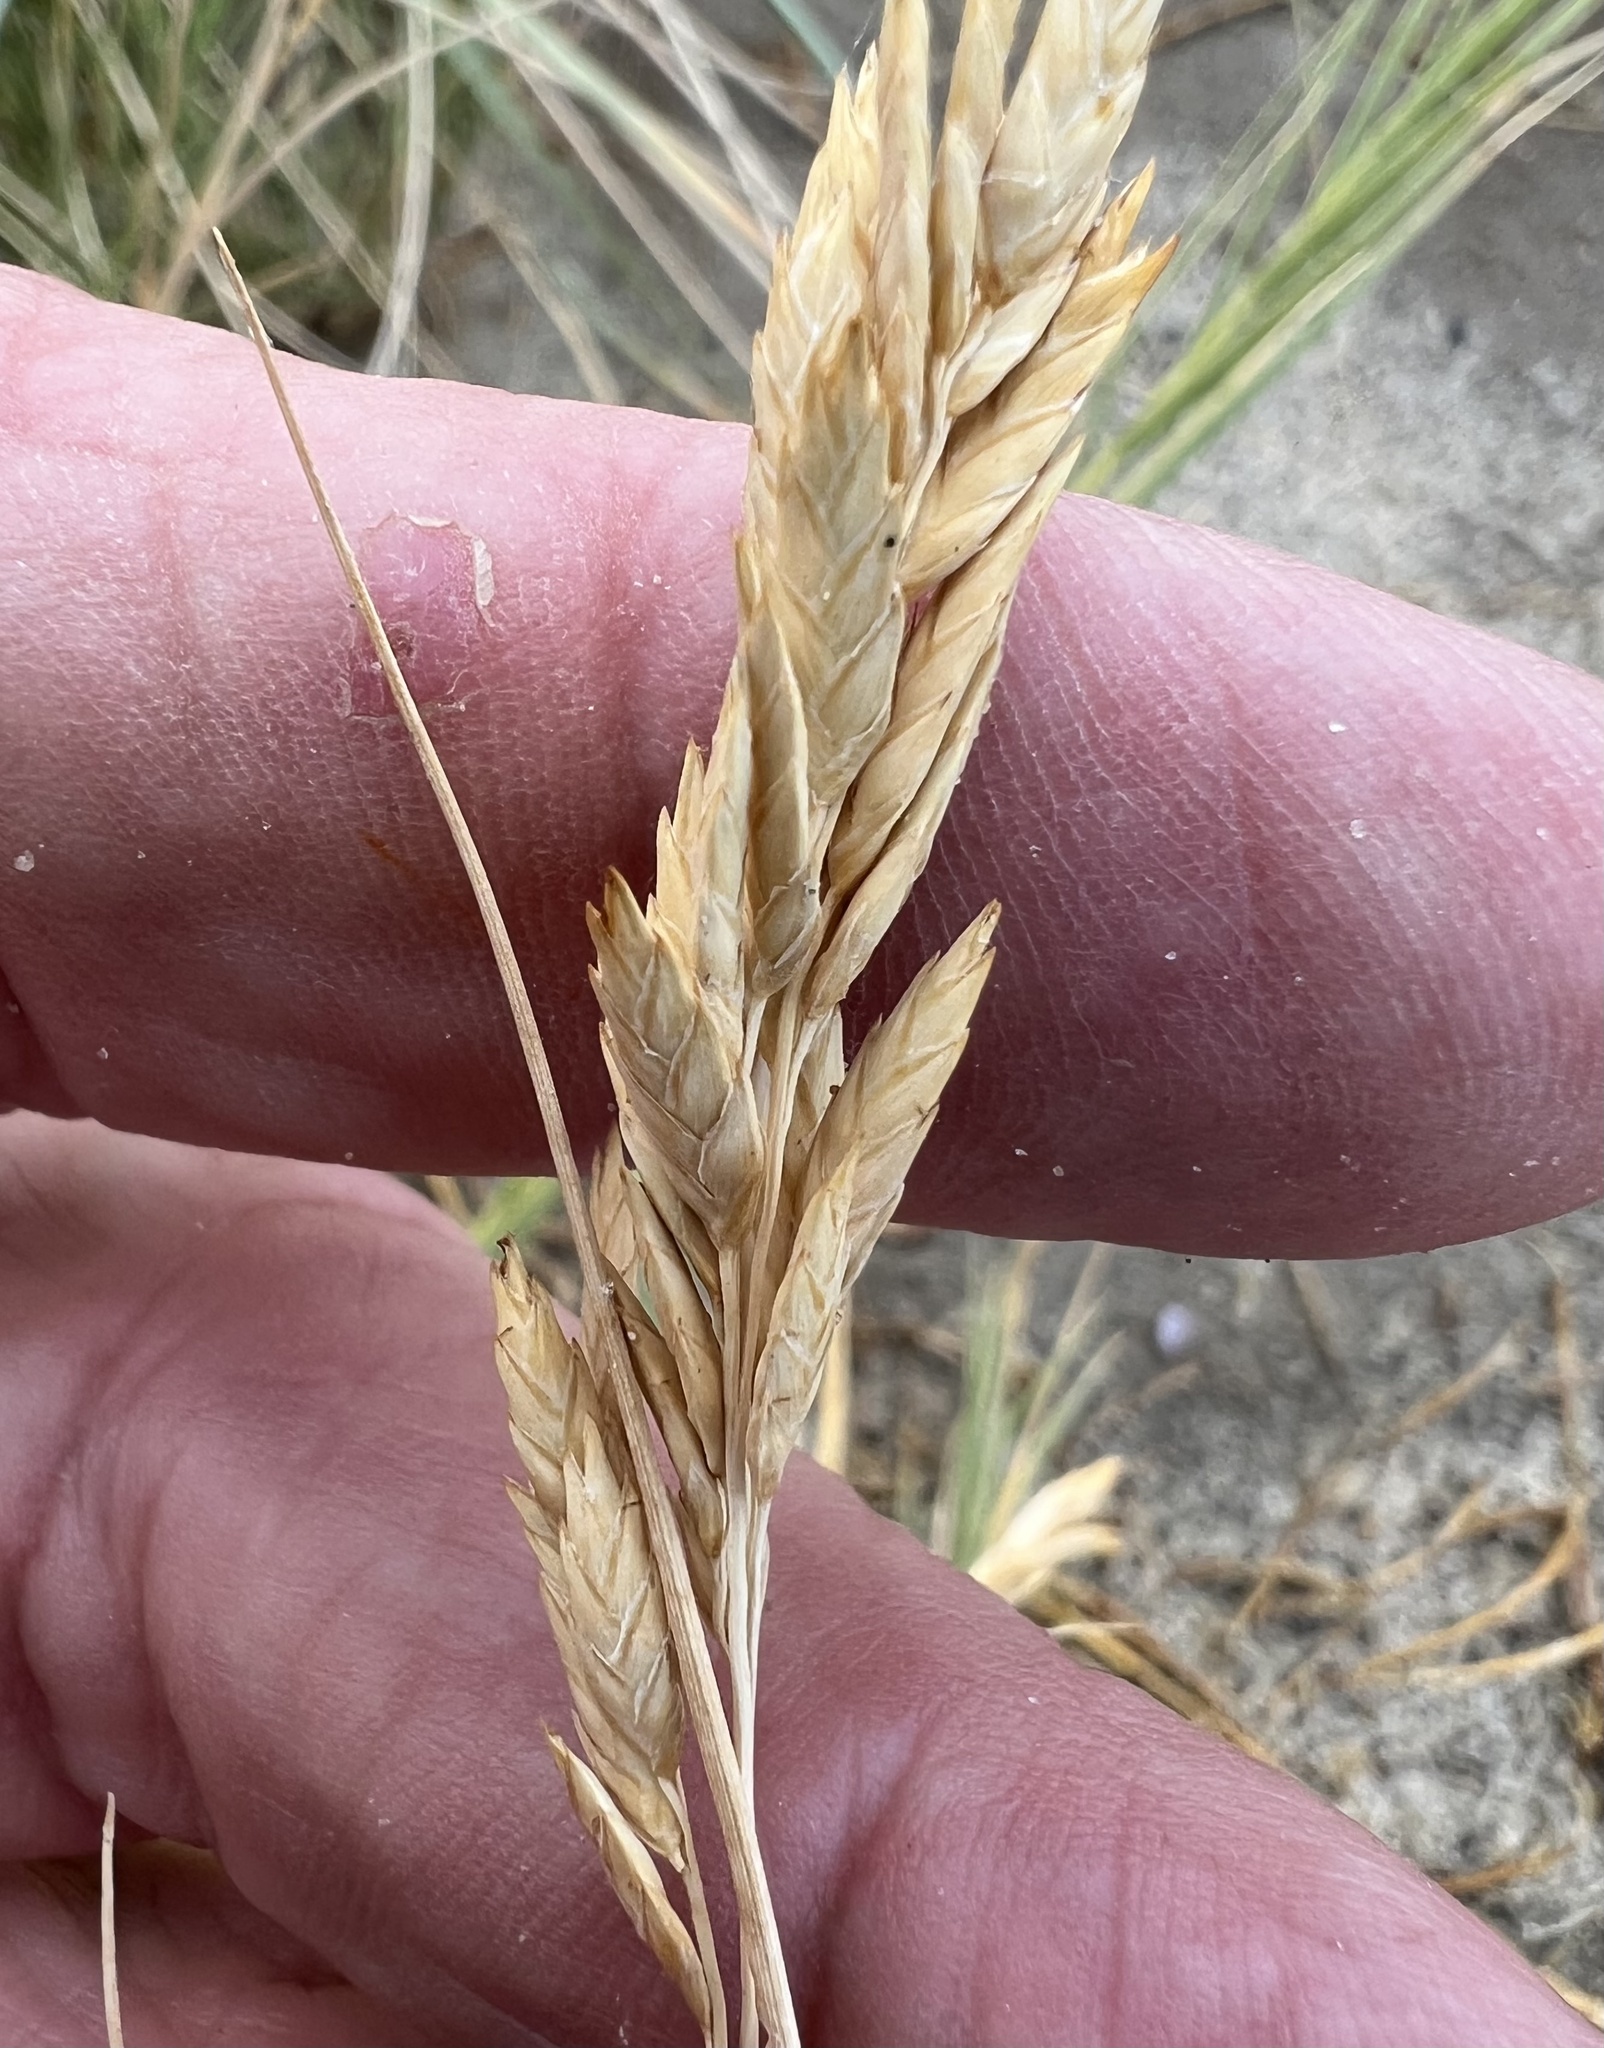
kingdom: Plantae
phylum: Tracheophyta
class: Liliopsida
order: Poales
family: Poaceae
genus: Distichlis
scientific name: Distichlis spicata
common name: Saltgrass
